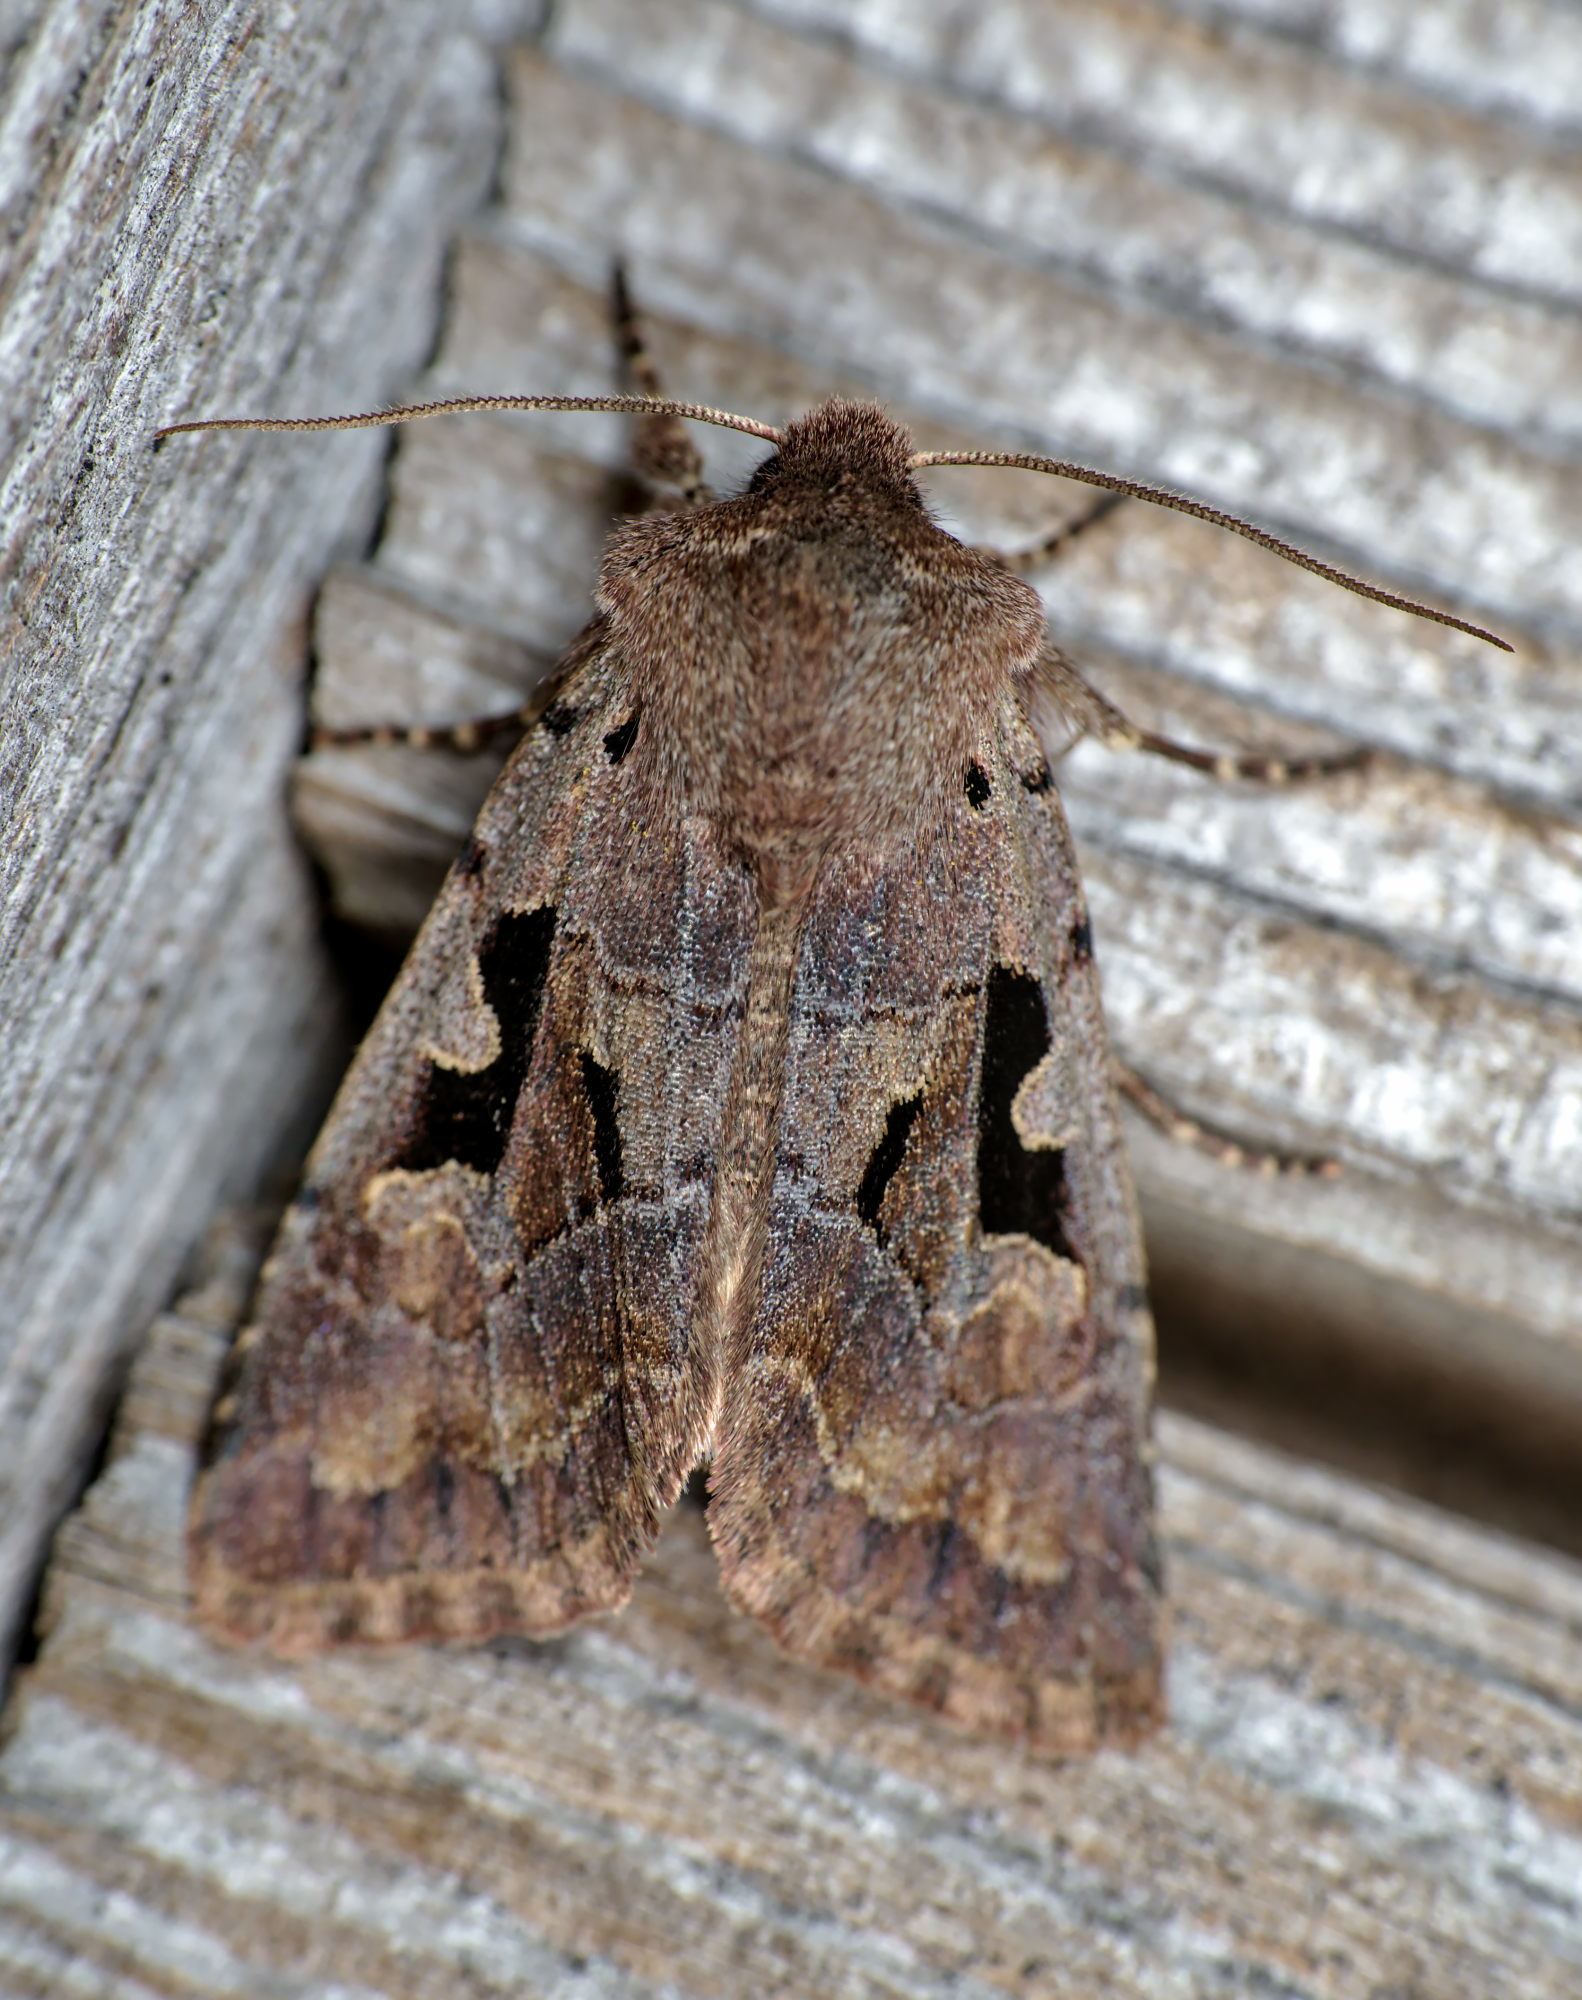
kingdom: Animalia
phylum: Arthropoda
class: Insecta
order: Lepidoptera
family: Noctuidae
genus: Orthosia
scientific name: Orthosia gothica
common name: Hebrew character
